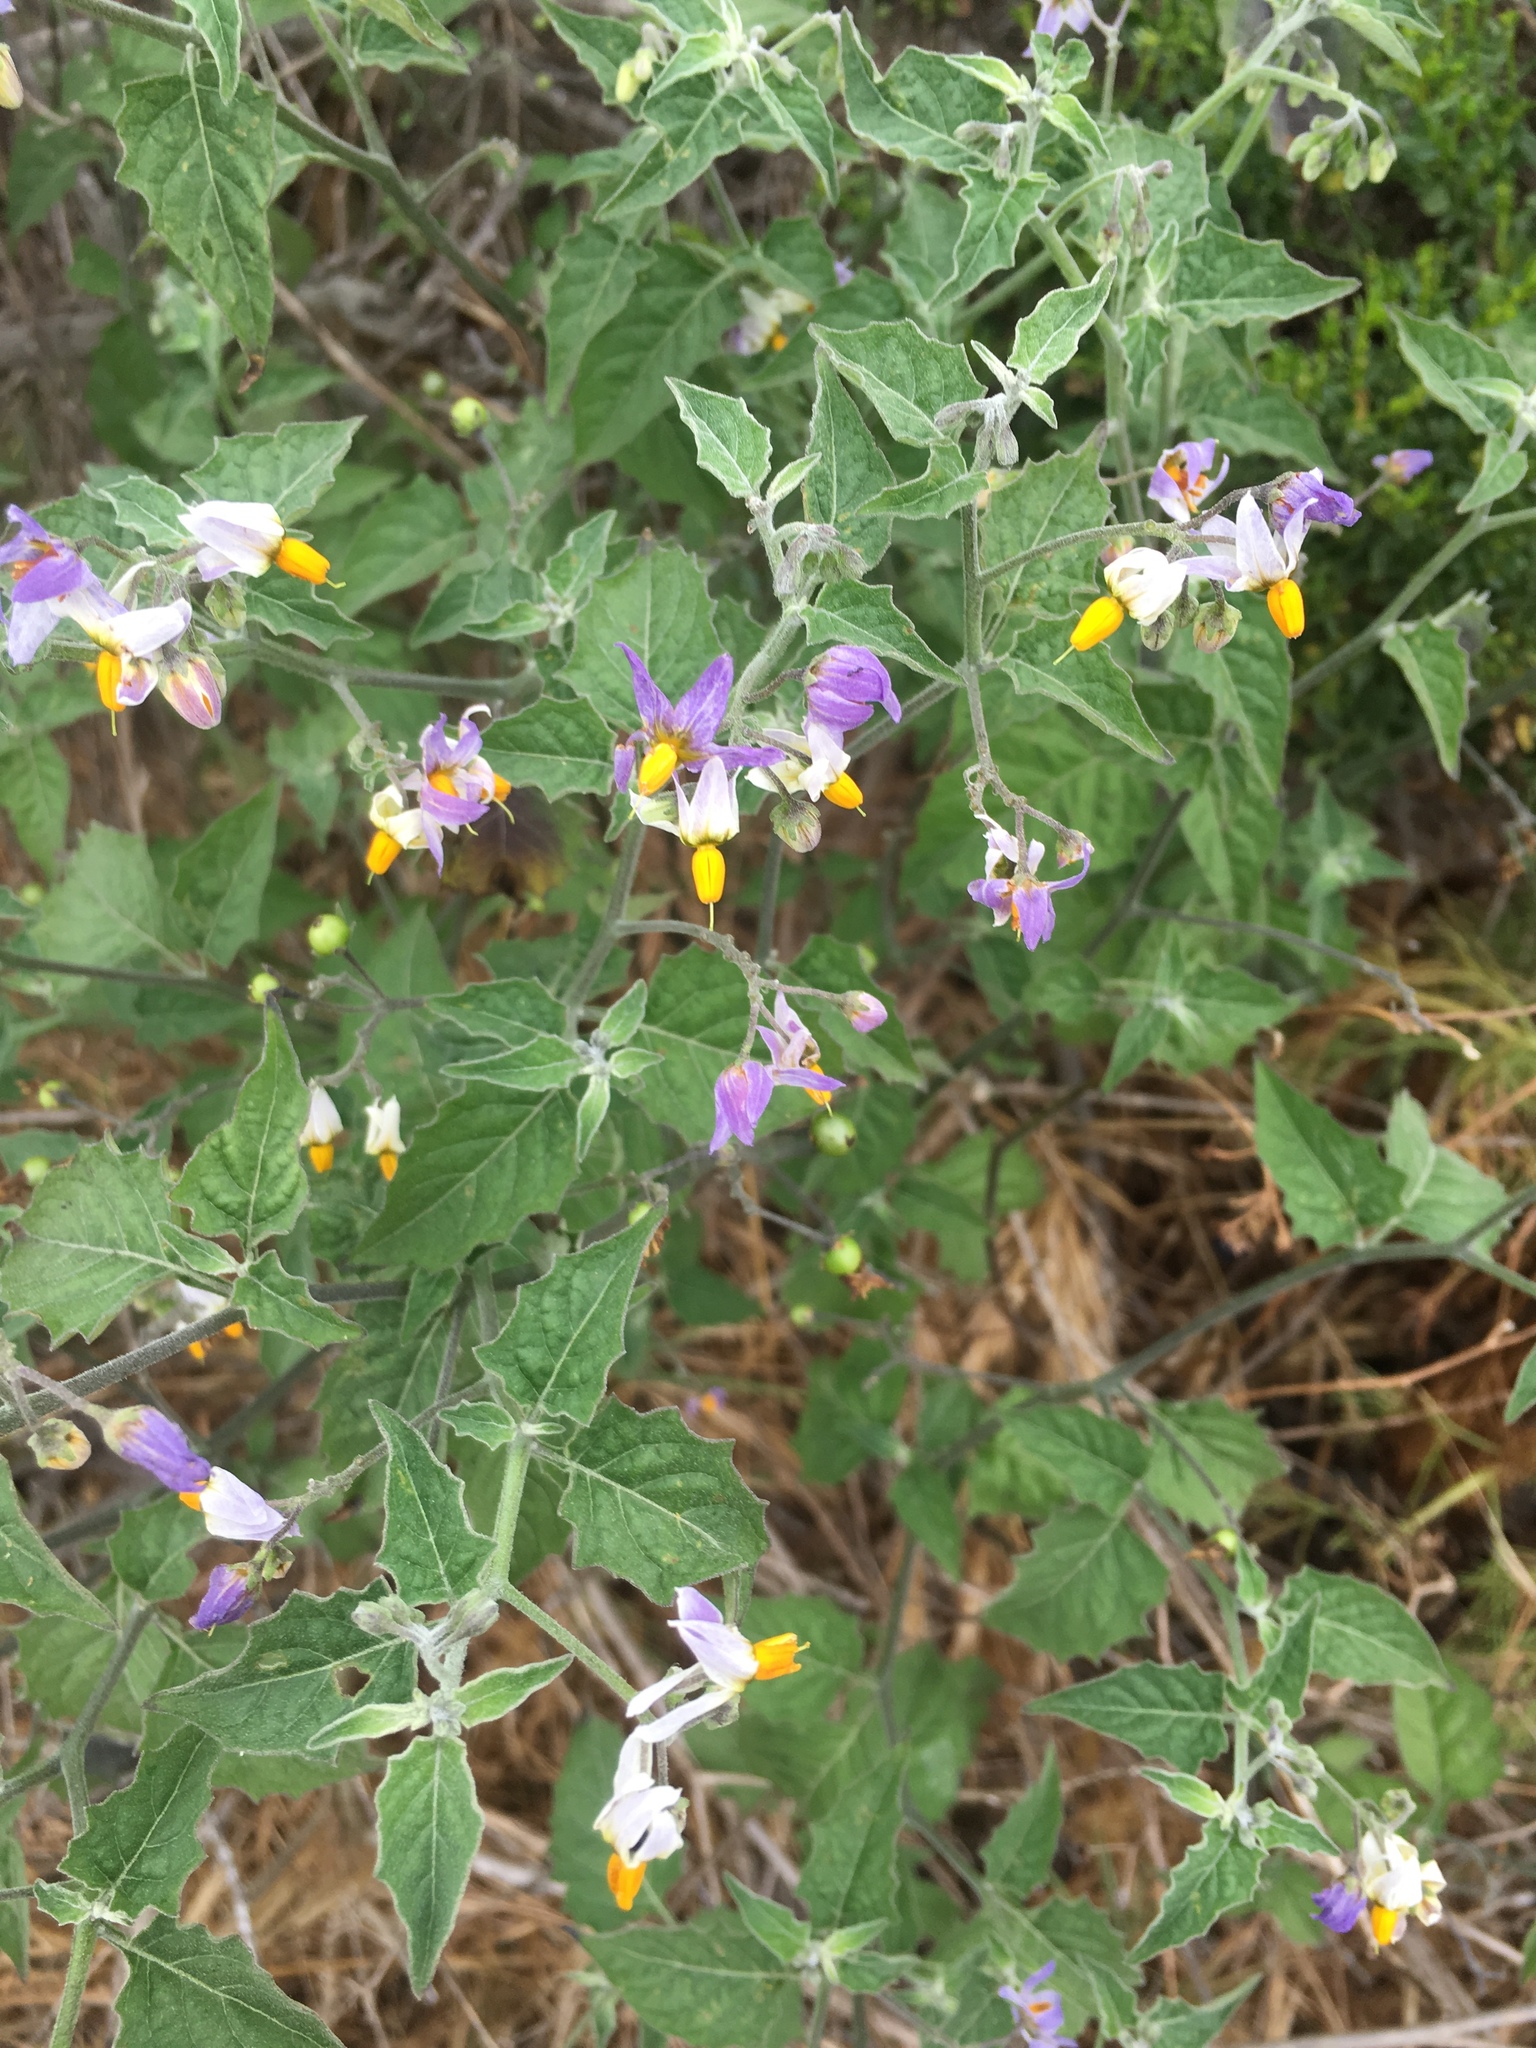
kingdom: Plantae
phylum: Tracheophyta
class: Magnoliopsida
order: Solanales
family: Solanaceae
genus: Solanum
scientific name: Solanum douglasii
